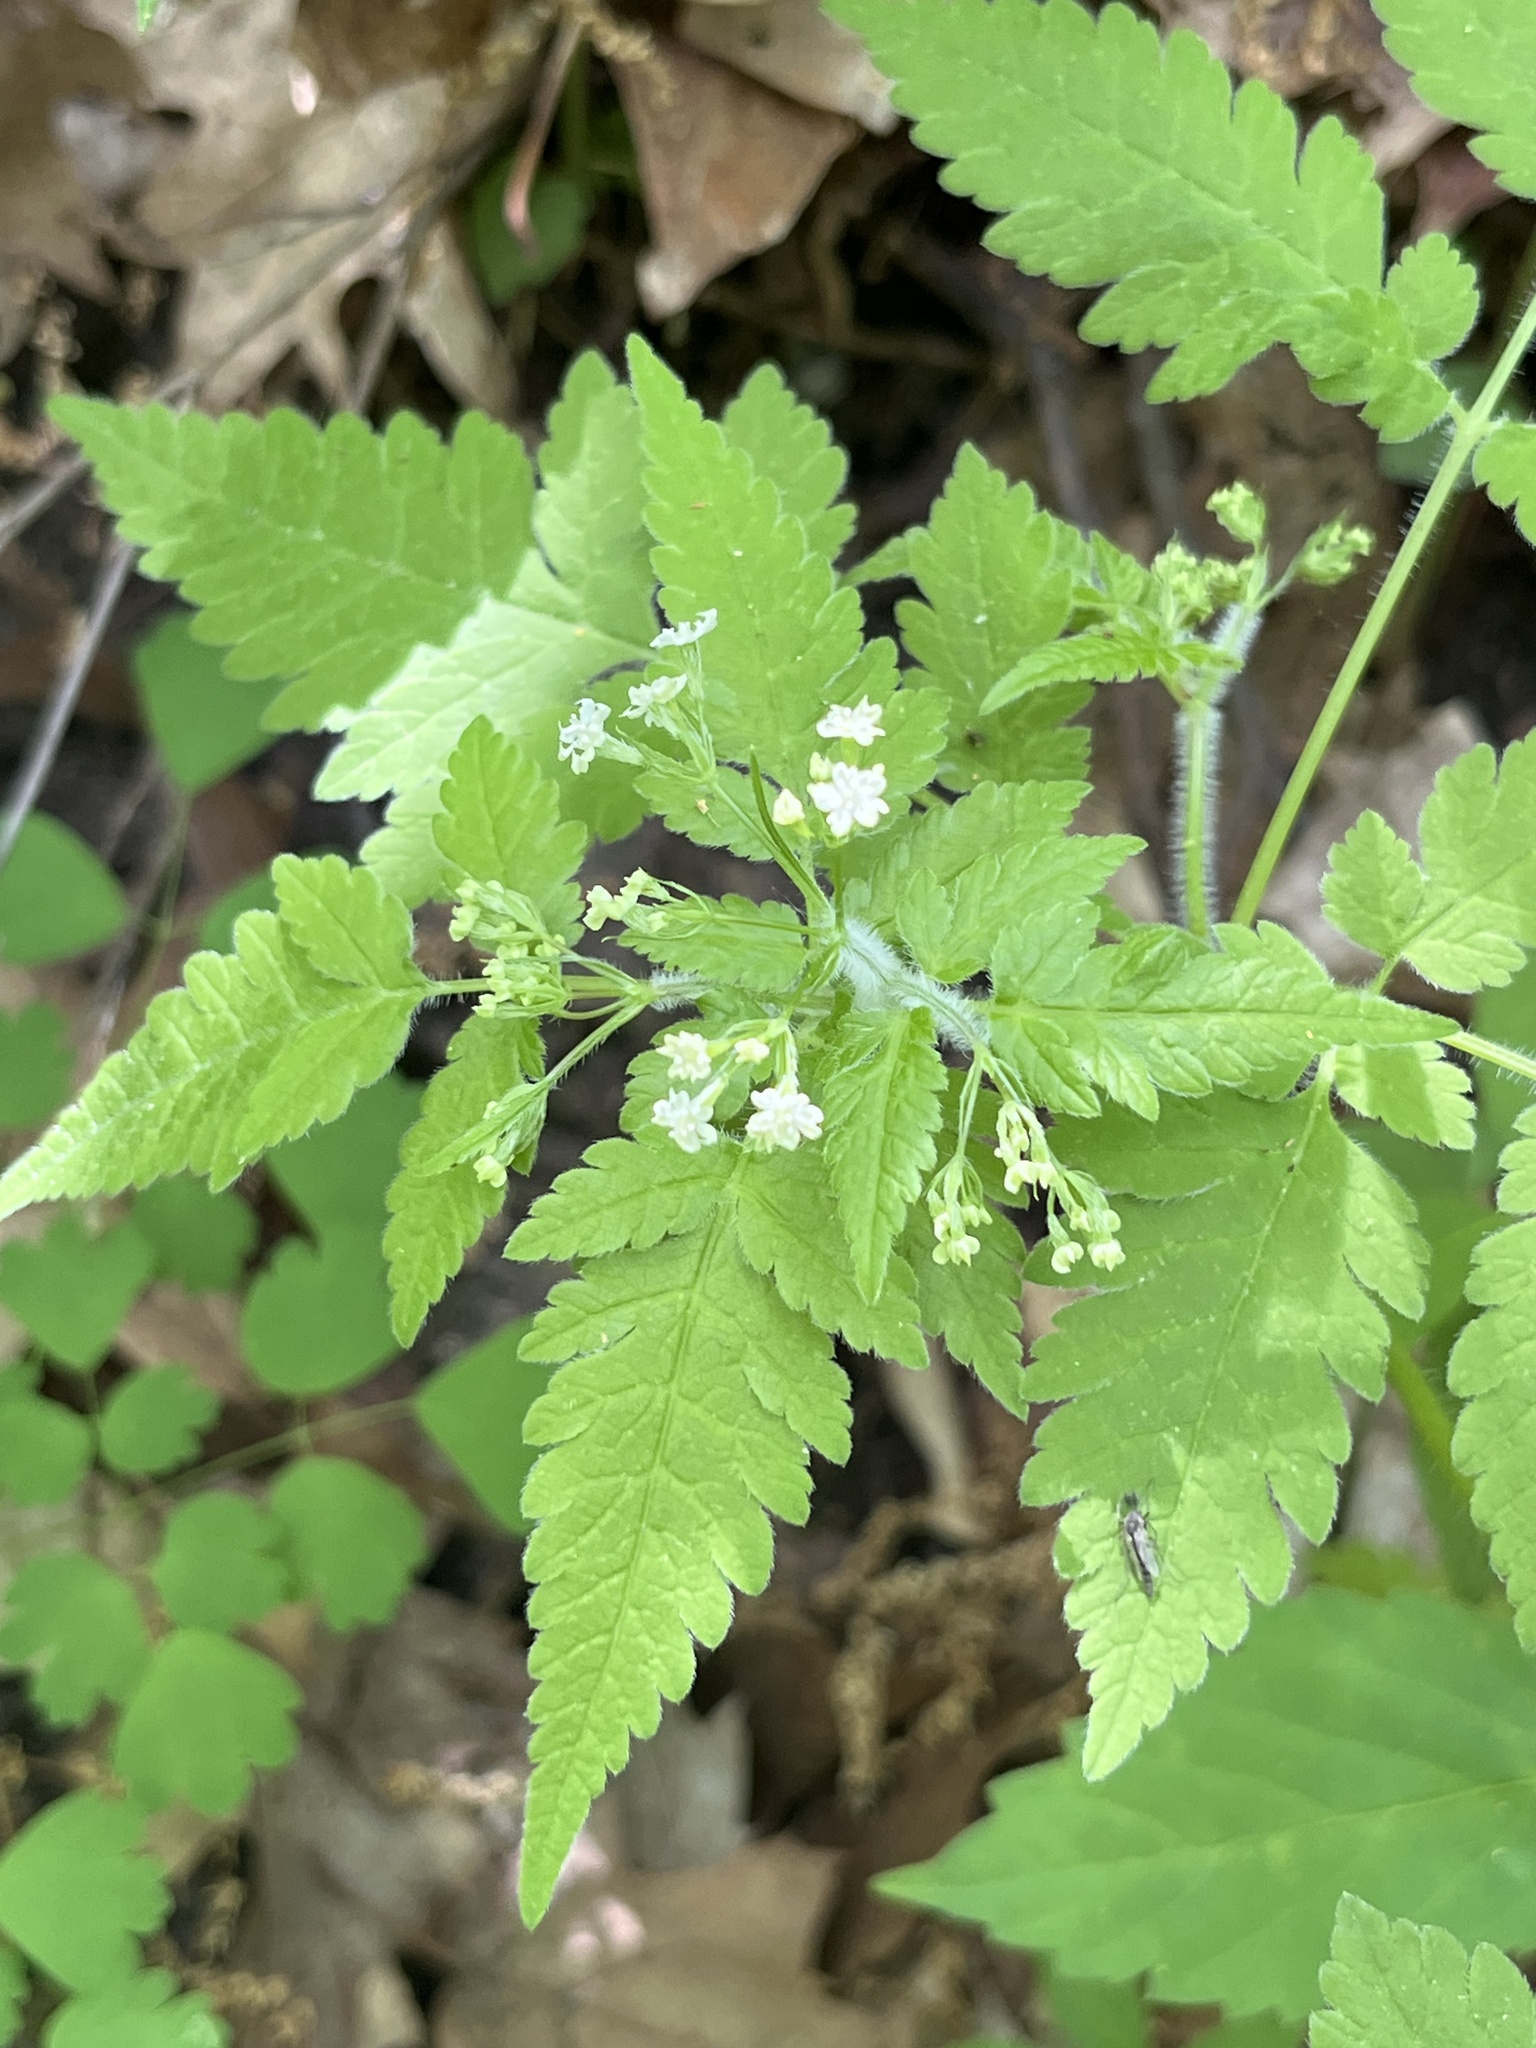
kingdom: Plantae
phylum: Tracheophyta
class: Magnoliopsida
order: Apiales
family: Apiaceae
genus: Osmorhiza
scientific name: Osmorhiza claytonii
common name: Hairy sweet cicely
